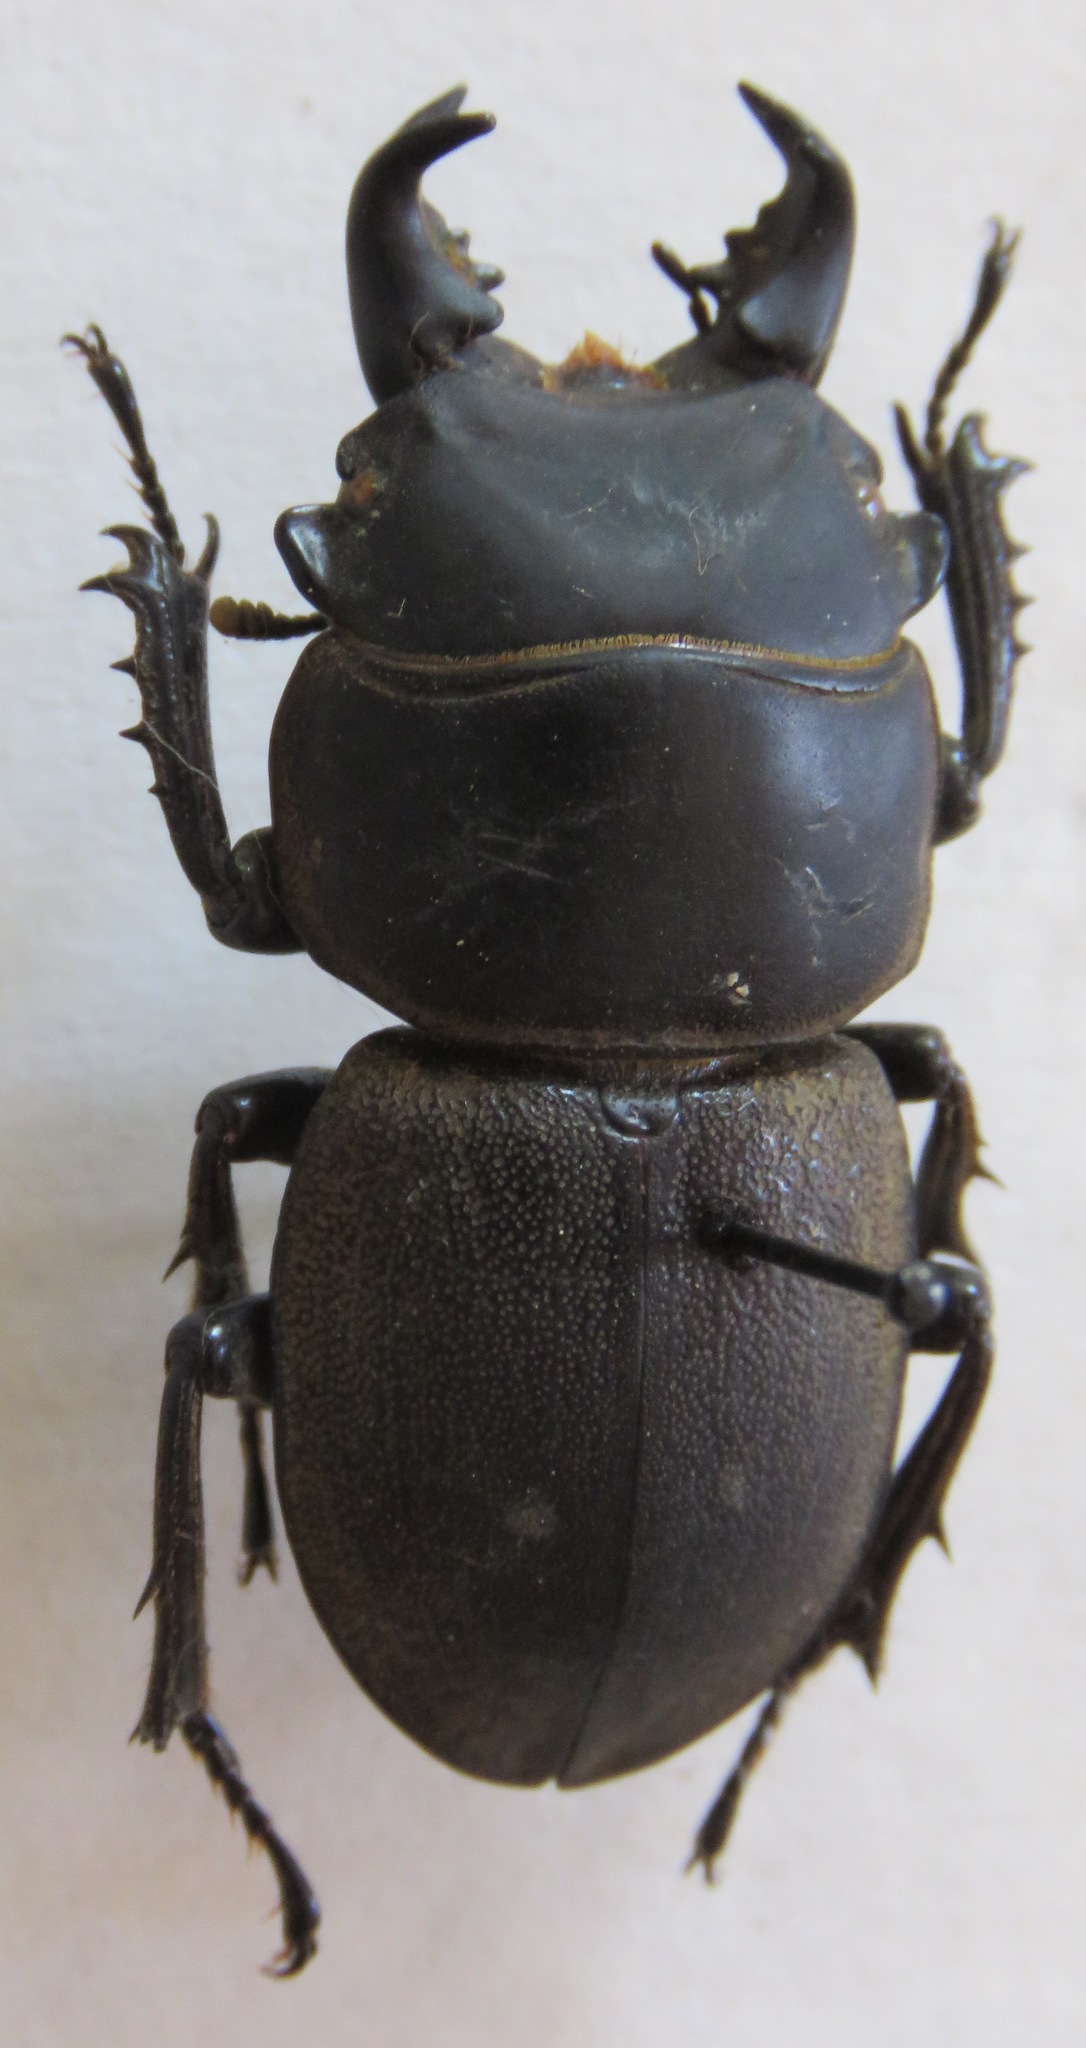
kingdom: Animalia
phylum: Arthropoda
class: Insecta
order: Coleoptera
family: Lucanidae
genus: Apterodorcus
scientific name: Apterodorcus bacchus
